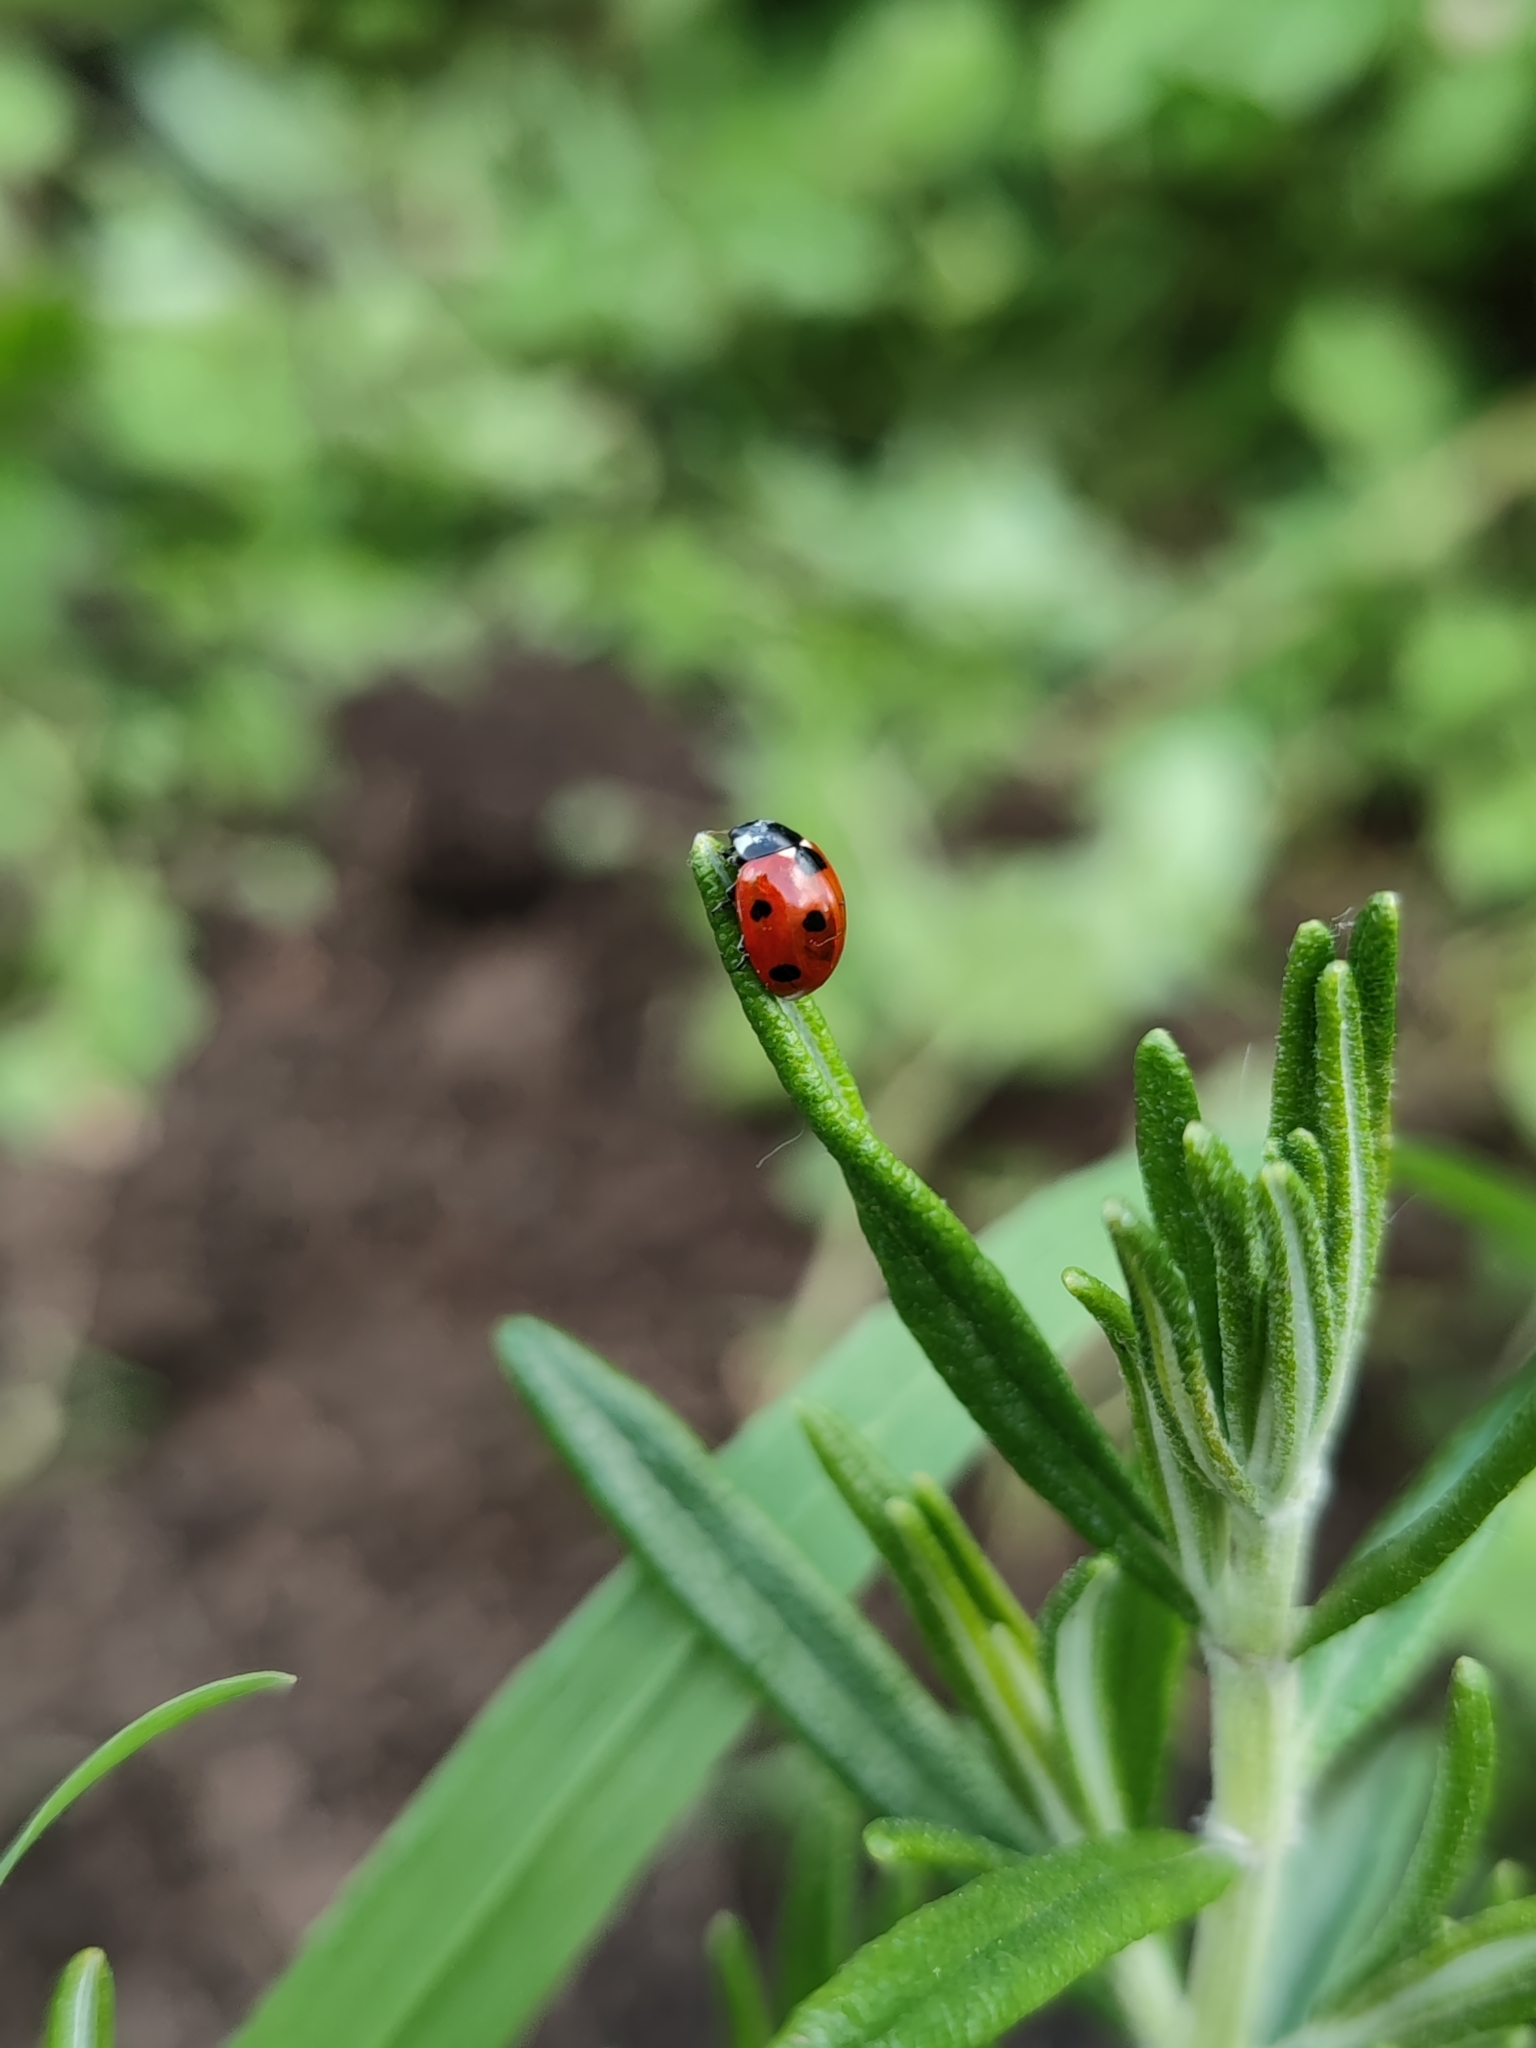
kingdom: Animalia
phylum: Arthropoda
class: Insecta
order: Coleoptera
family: Coccinellidae
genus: Coccinella
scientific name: Coccinella septempunctata
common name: Sevenspotted lady beetle
